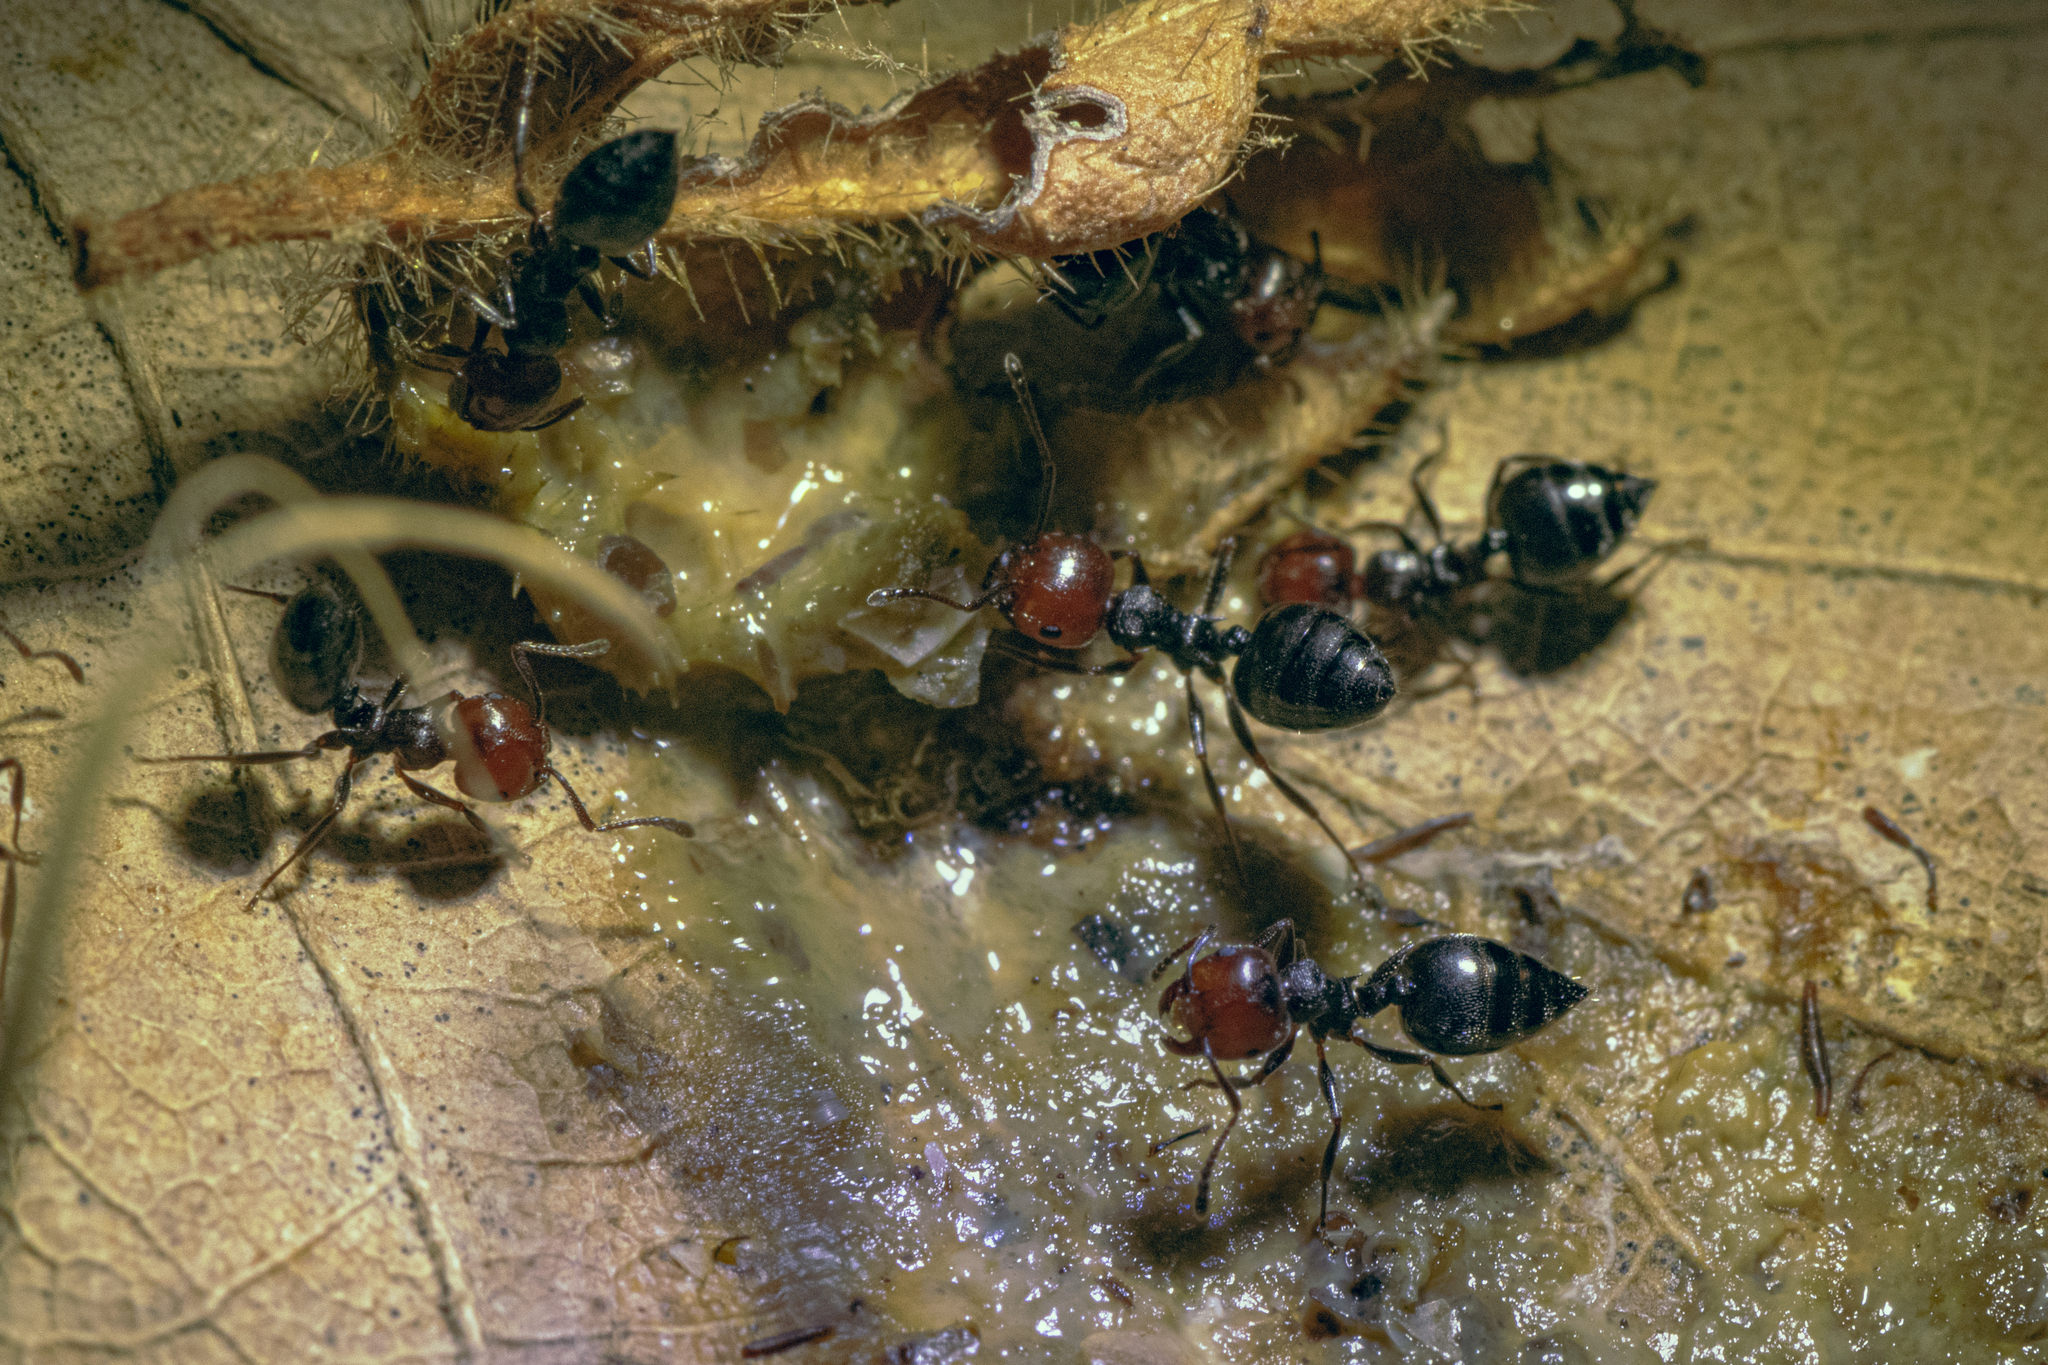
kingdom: Animalia
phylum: Arthropoda
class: Insecta
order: Hymenoptera
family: Formicidae
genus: Crematogaster
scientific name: Crematogaster scutellaris
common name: Fourmi du liège
